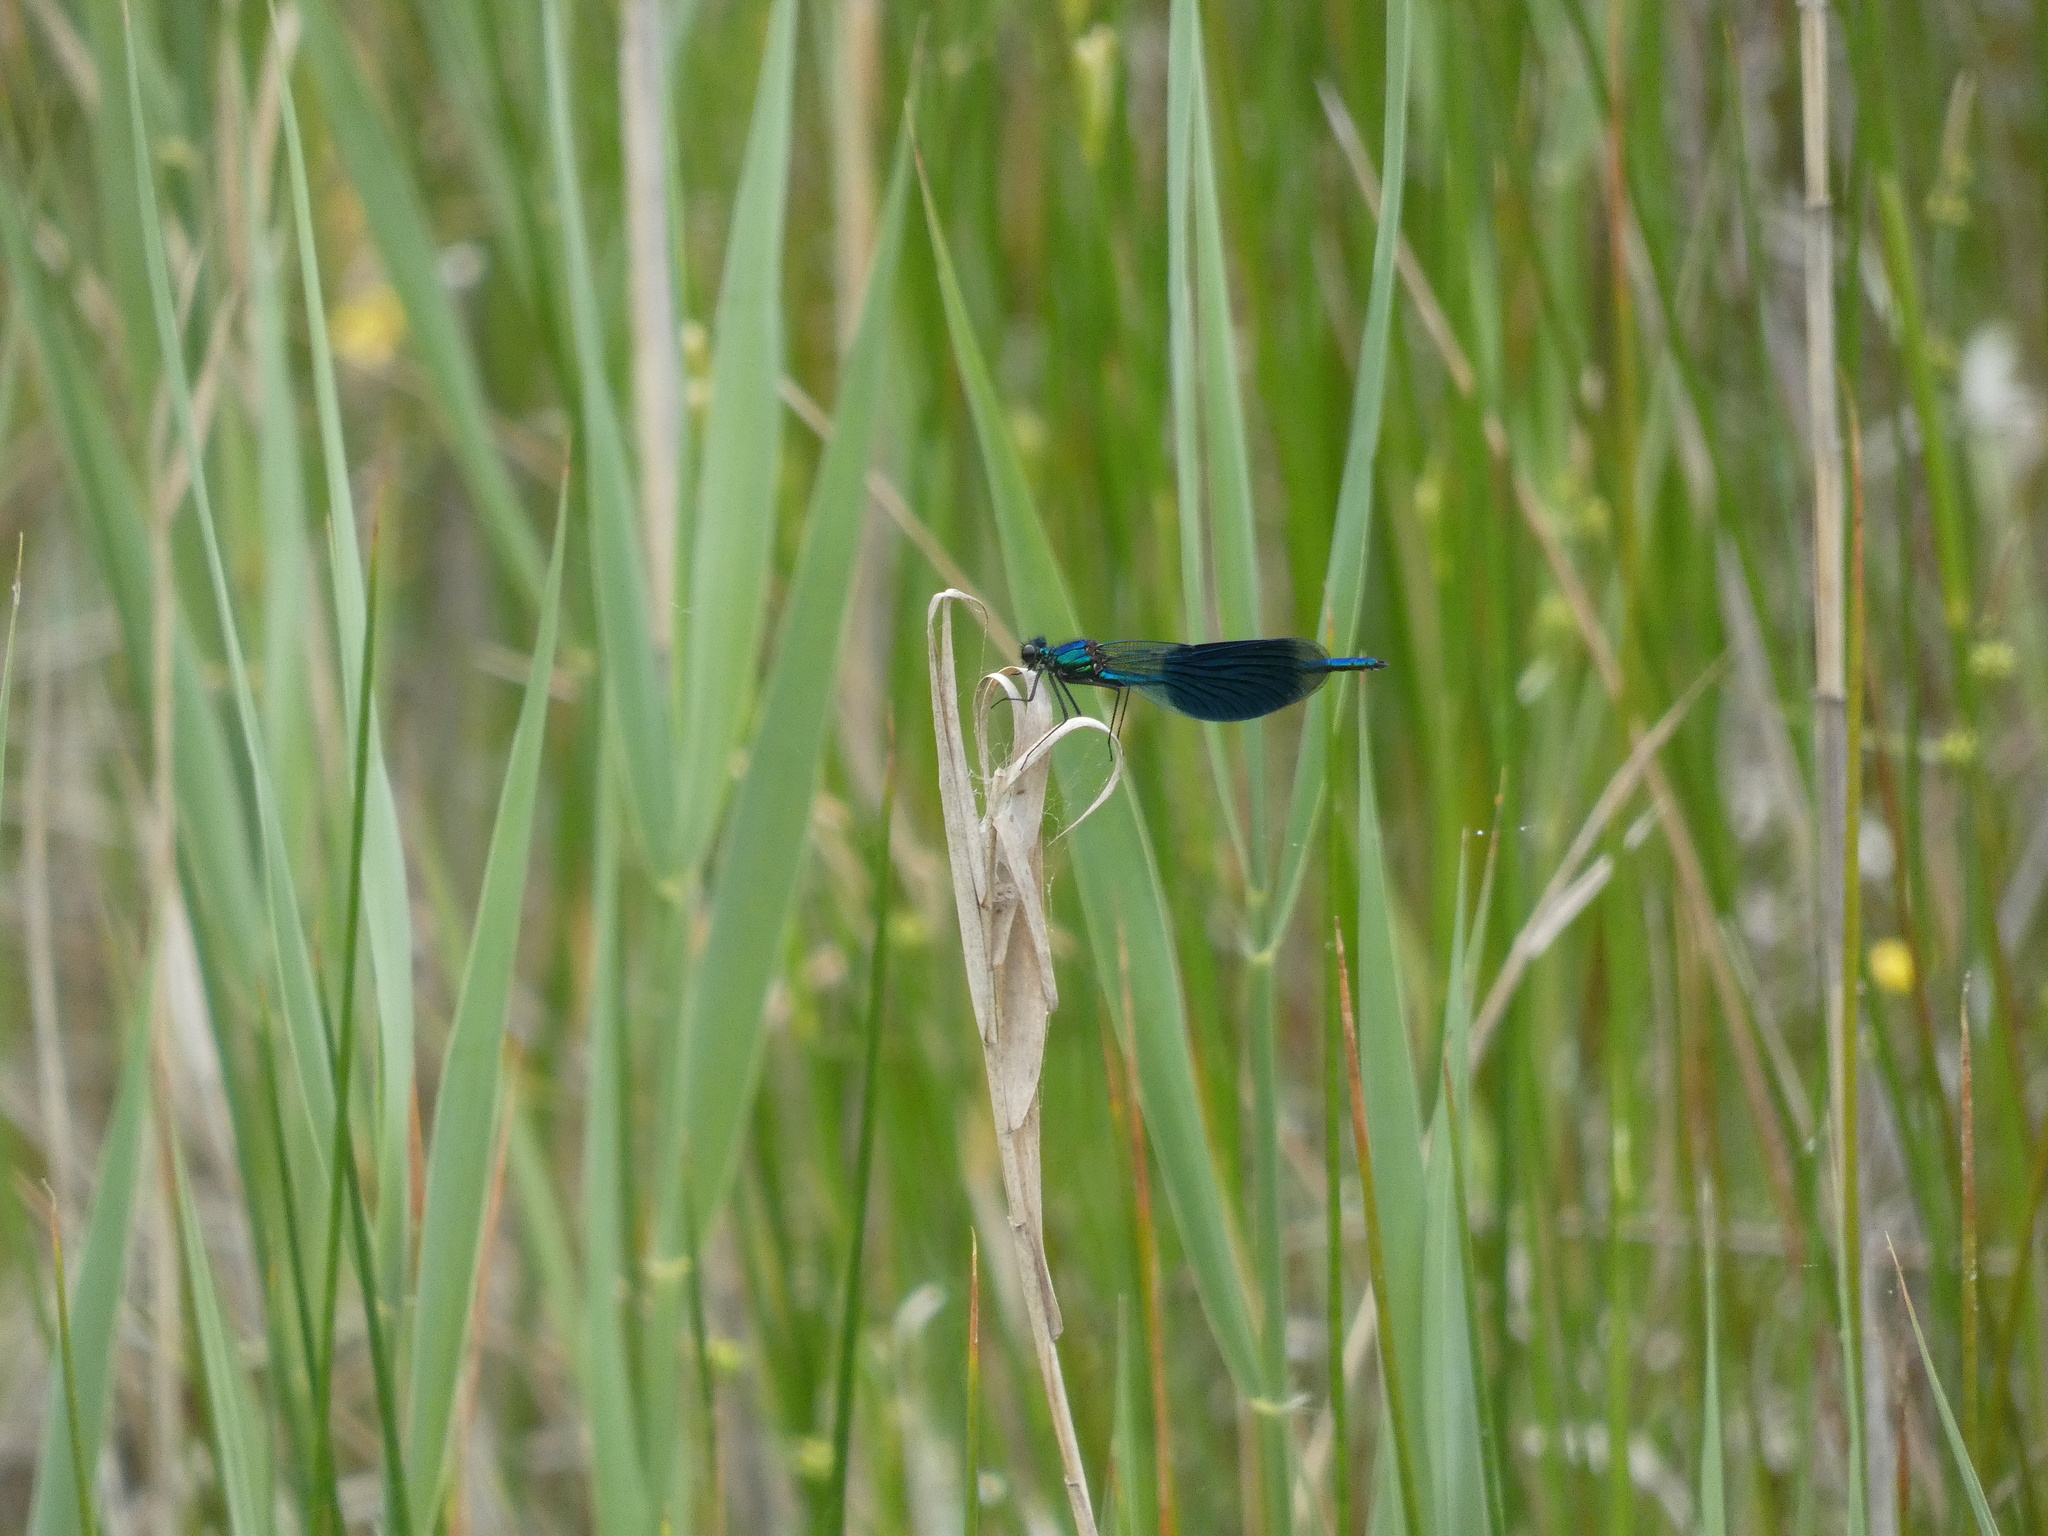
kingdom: Animalia
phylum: Arthropoda
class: Insecta
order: Odonata
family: Calopterygidae
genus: Calopteryx
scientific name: Calopteryx splendens
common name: Banded demoiselle
